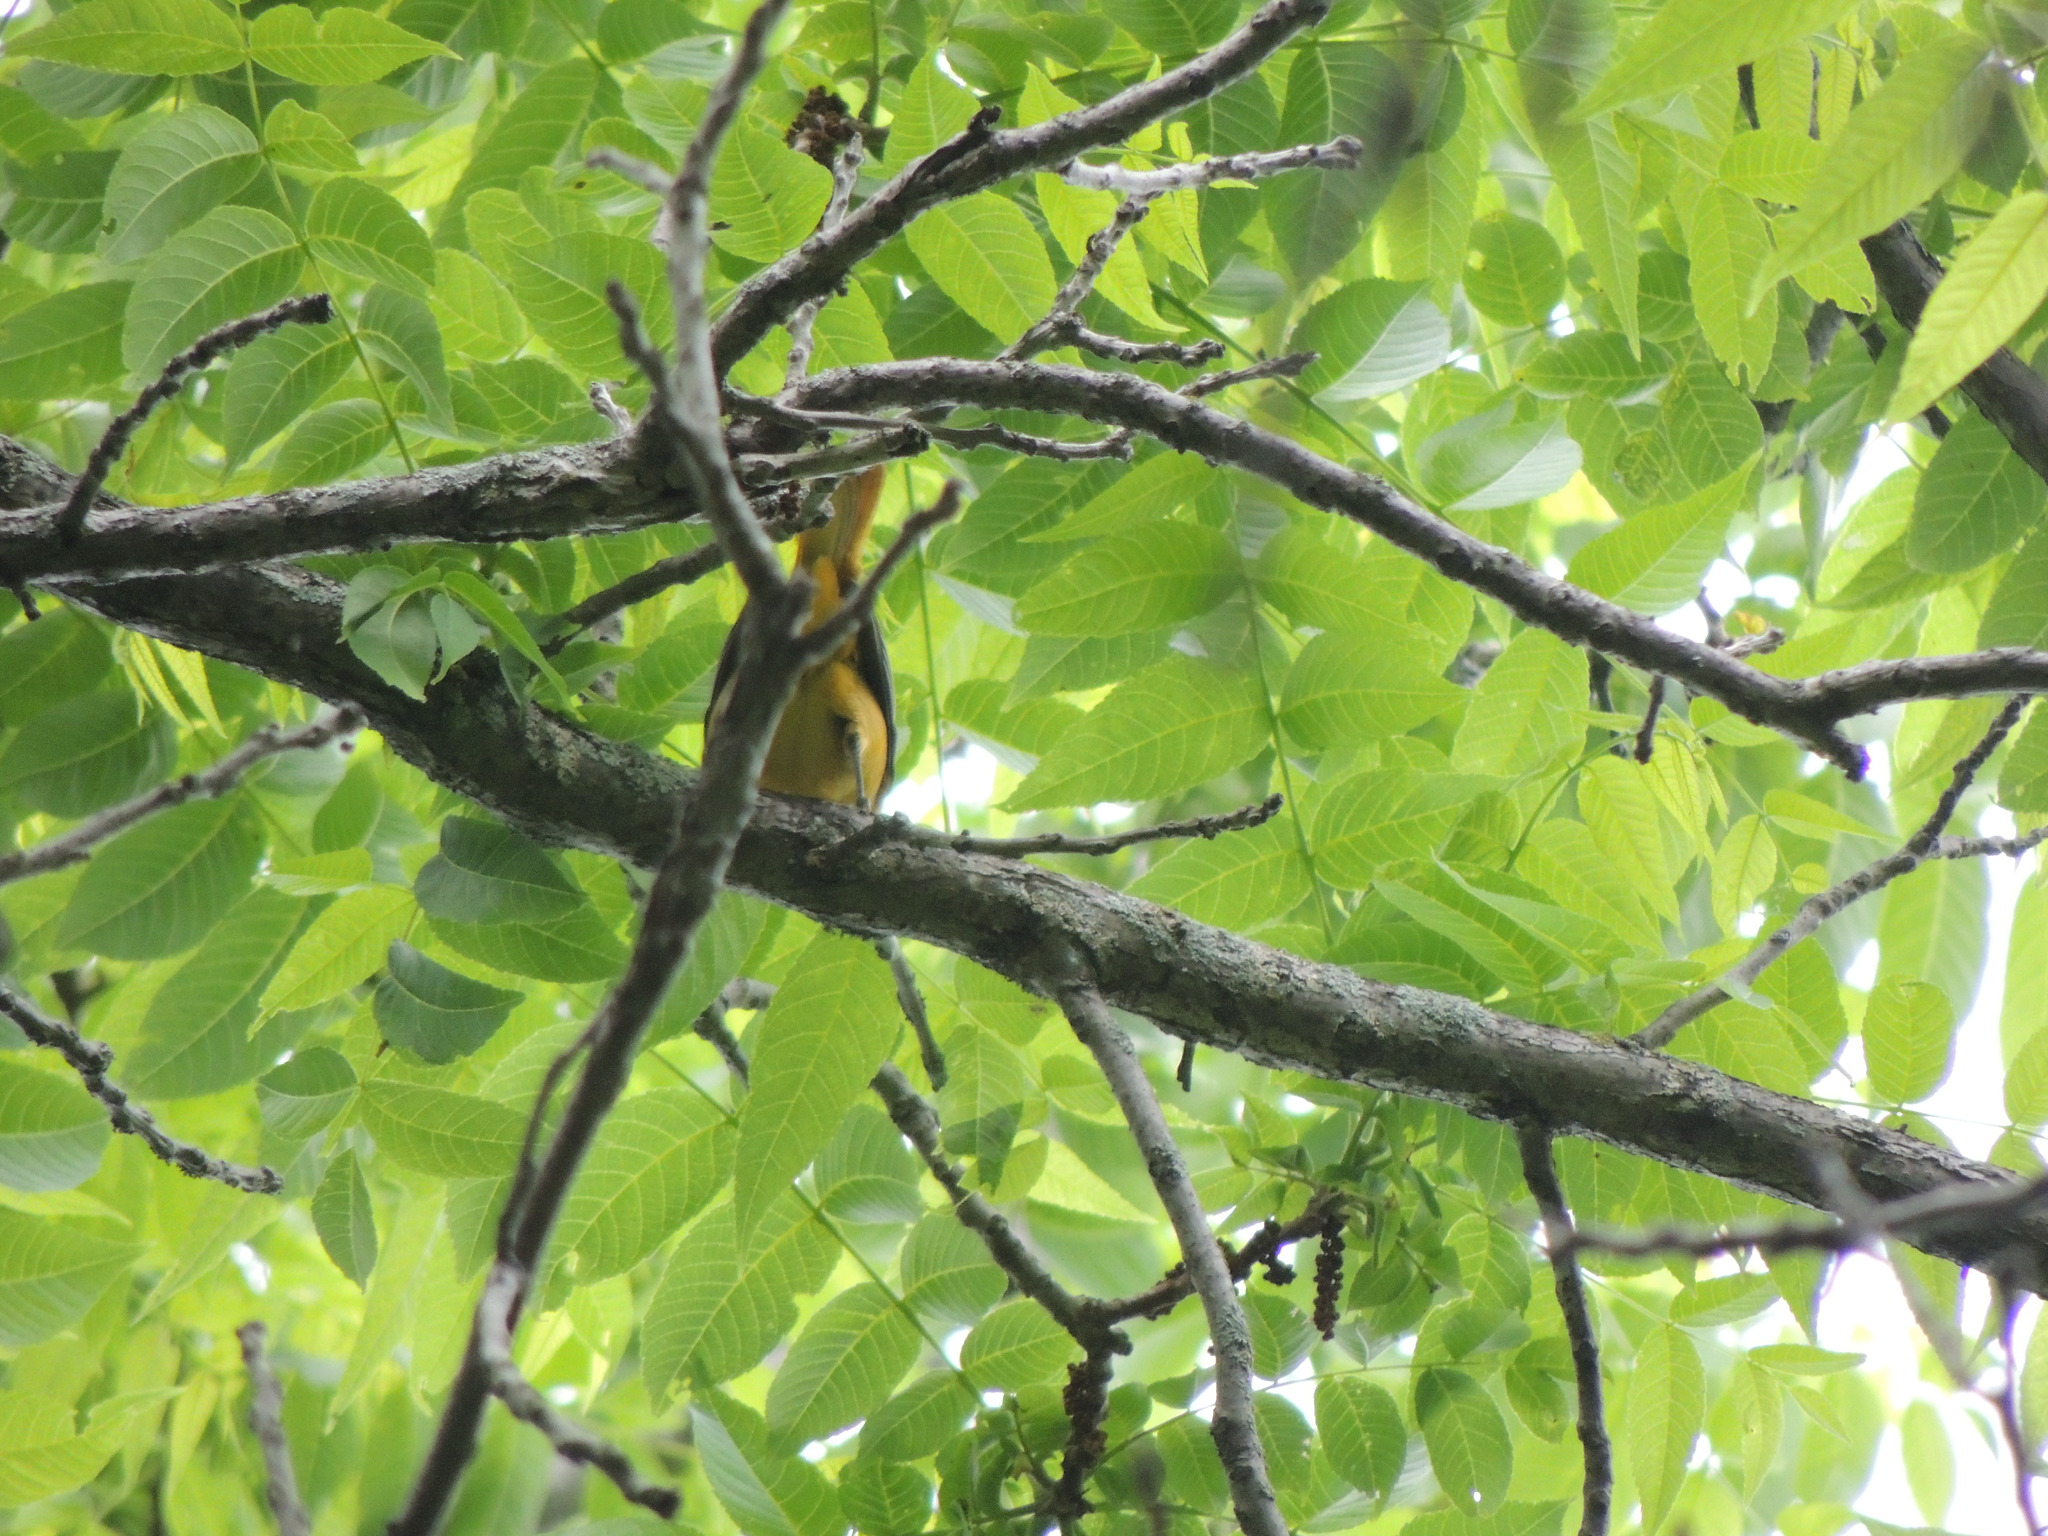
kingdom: Animalia
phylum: Chordata
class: Aves
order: Passeriformes
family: Icteridae
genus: Icterus
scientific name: Icterus galbula
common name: Baltimore oriole
